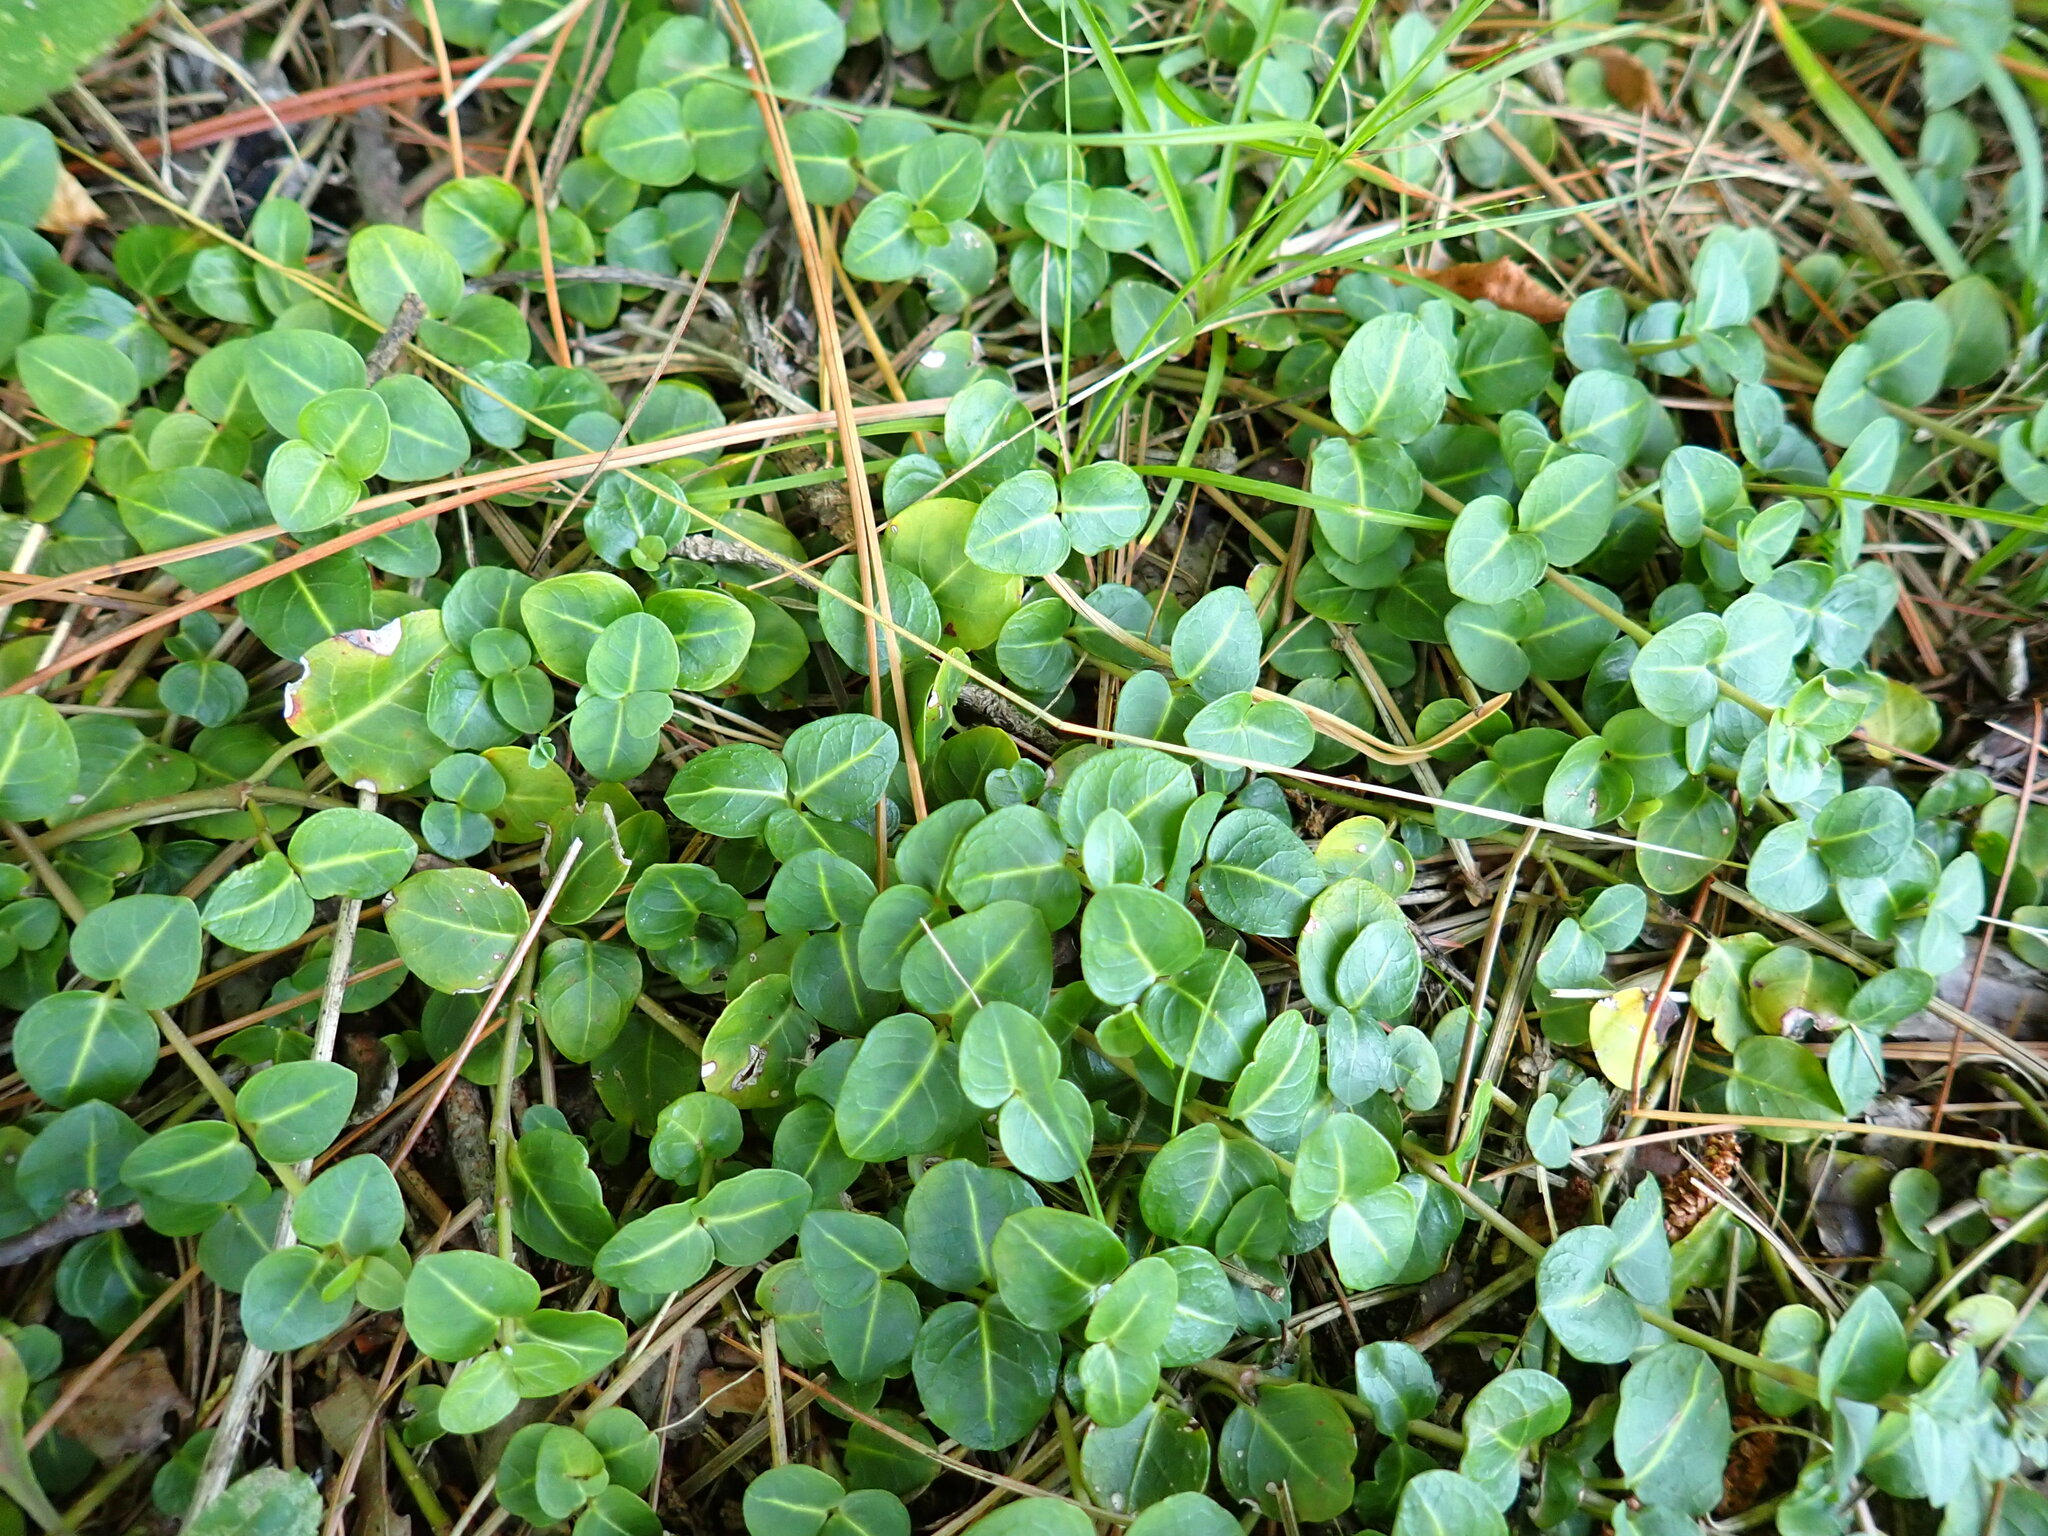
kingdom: Plantae
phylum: Tracheophyta
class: Magnoliopsida
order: Gentianales
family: Rubiaceae
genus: Mitchella
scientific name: Mitchella repens
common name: Partridge-berry
